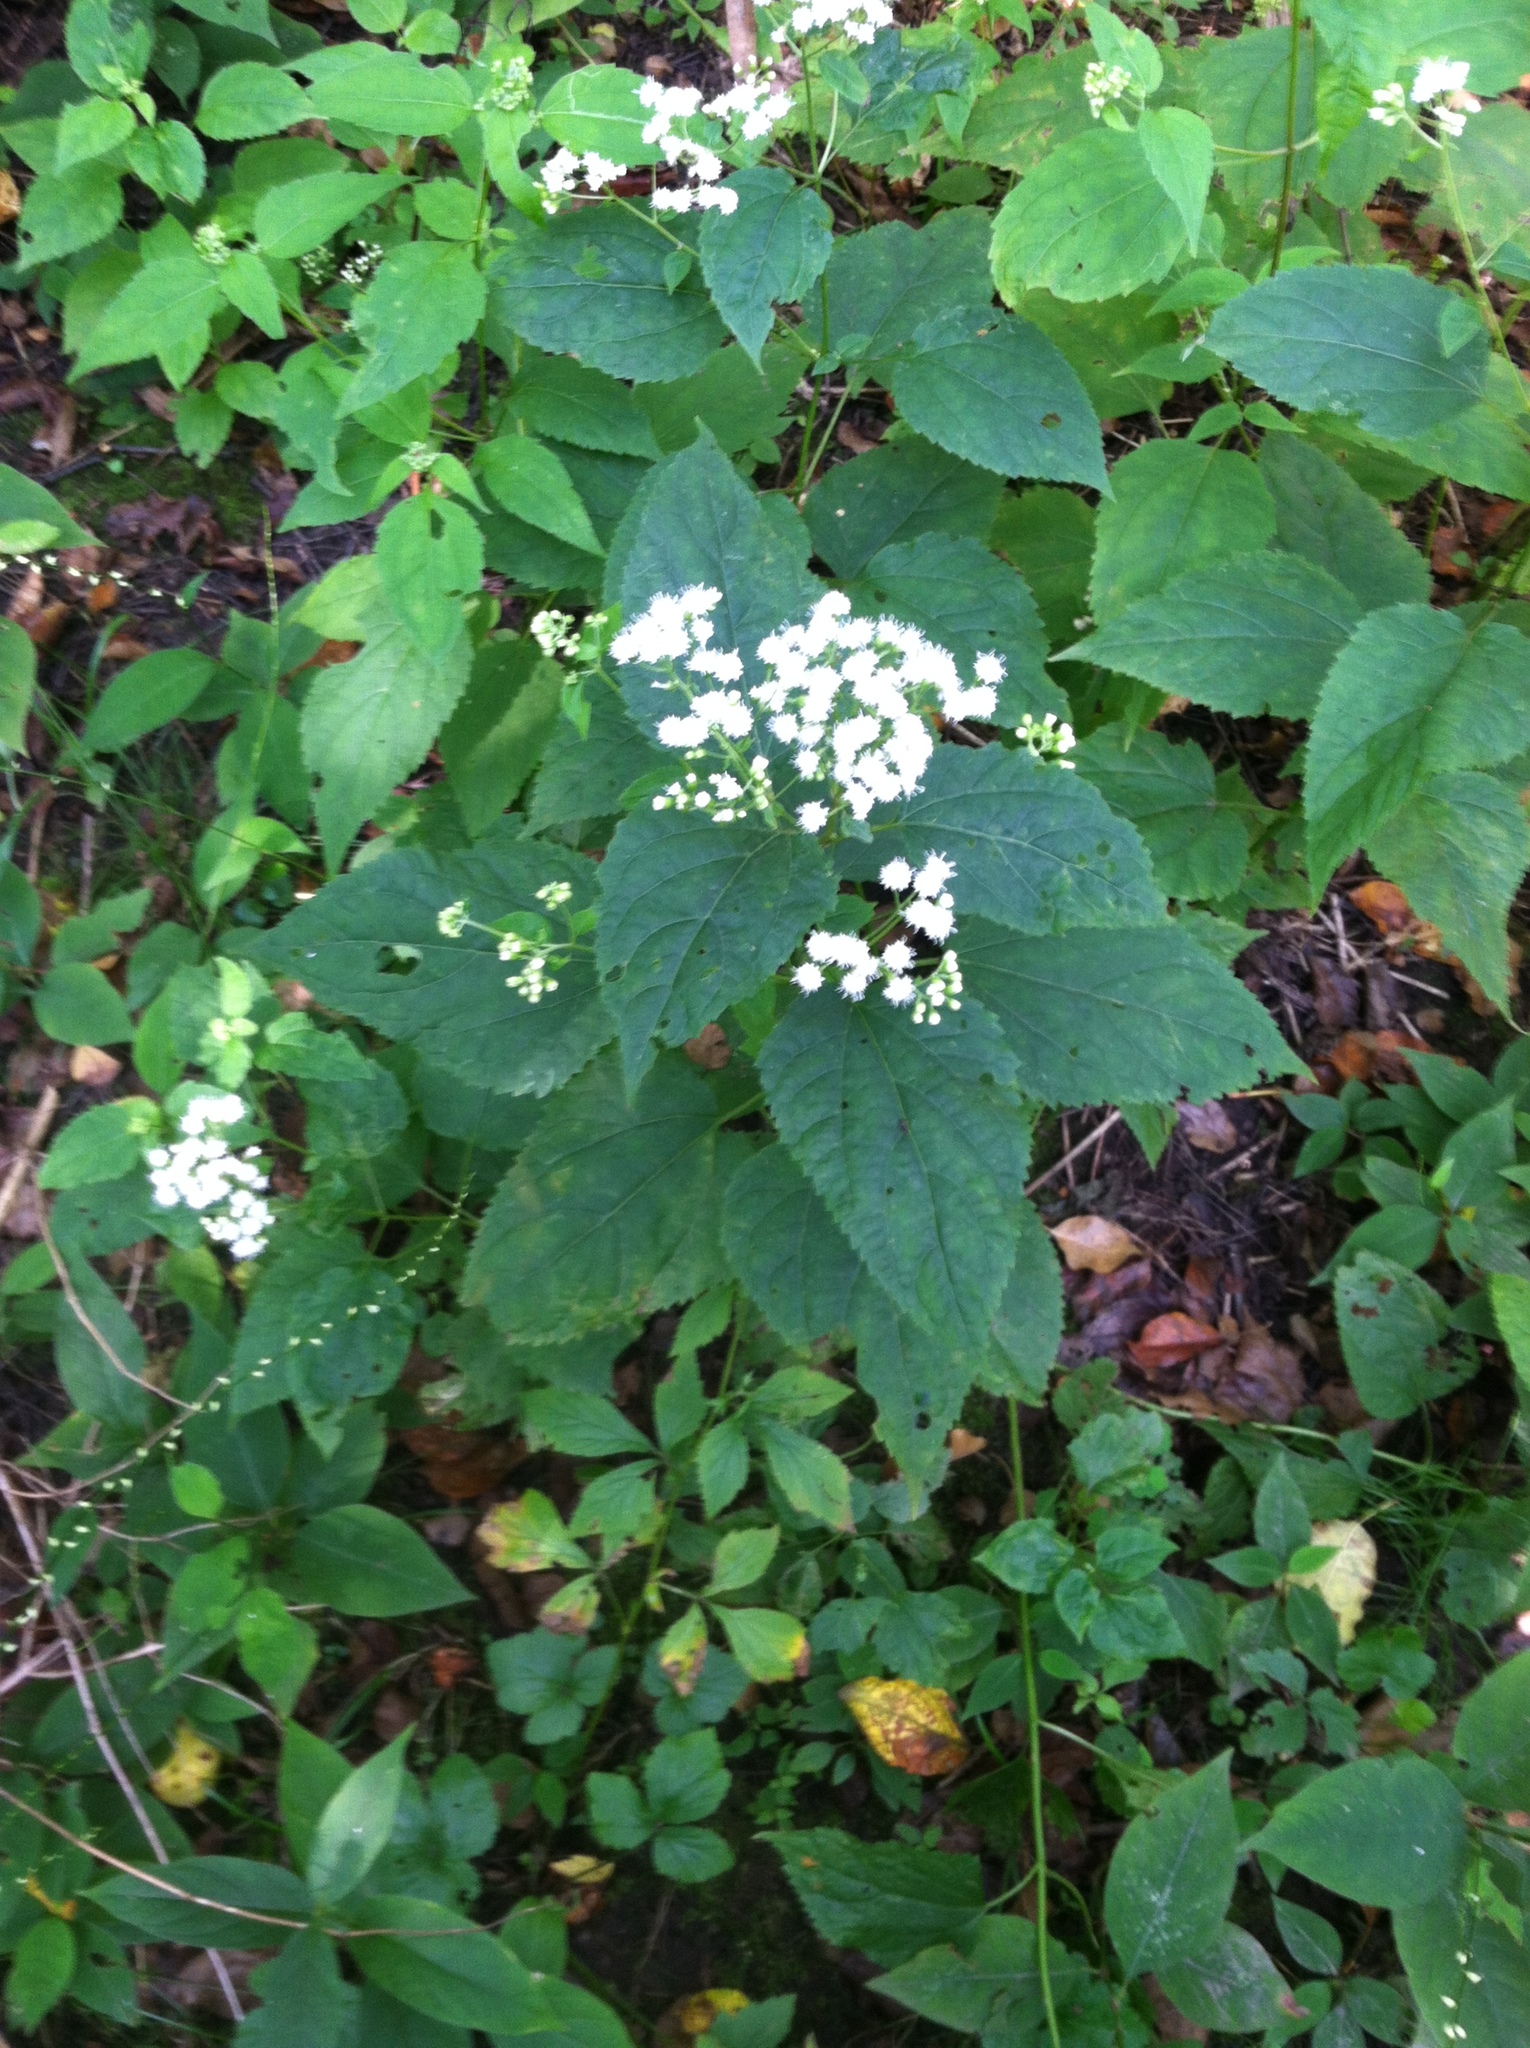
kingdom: Plantae
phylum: Tracheophyta
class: Magnoliopsida
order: Asterales
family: Asteraceae
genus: Ageratina
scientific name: Ageratina altissima
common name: White snakeroot
